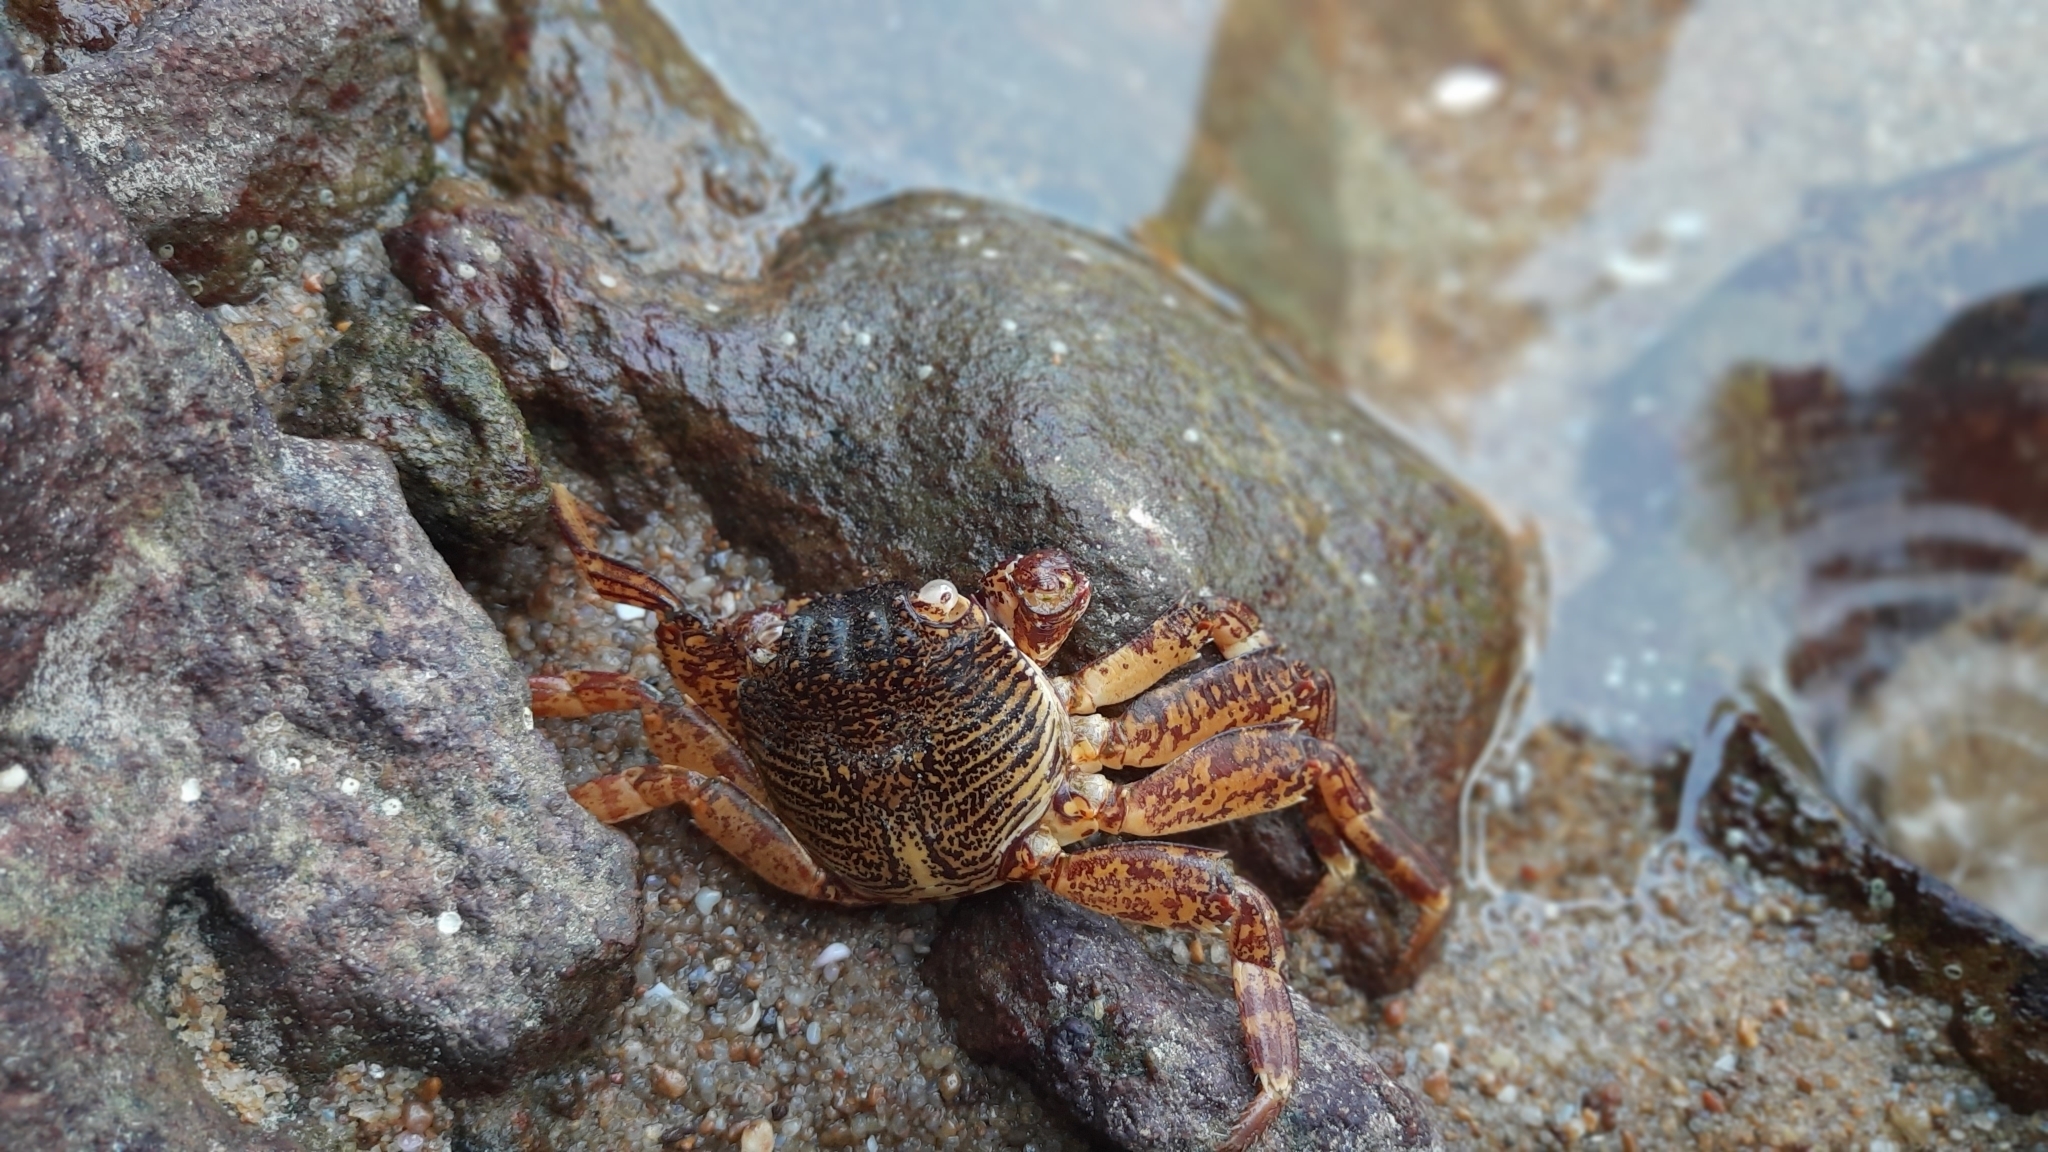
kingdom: Animalia
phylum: Arthropoda
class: Malacostraca
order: Decapoda
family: Grapsidae
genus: Grapsus
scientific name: Grapsus albolineatus
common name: Mottled lightfoot crab
